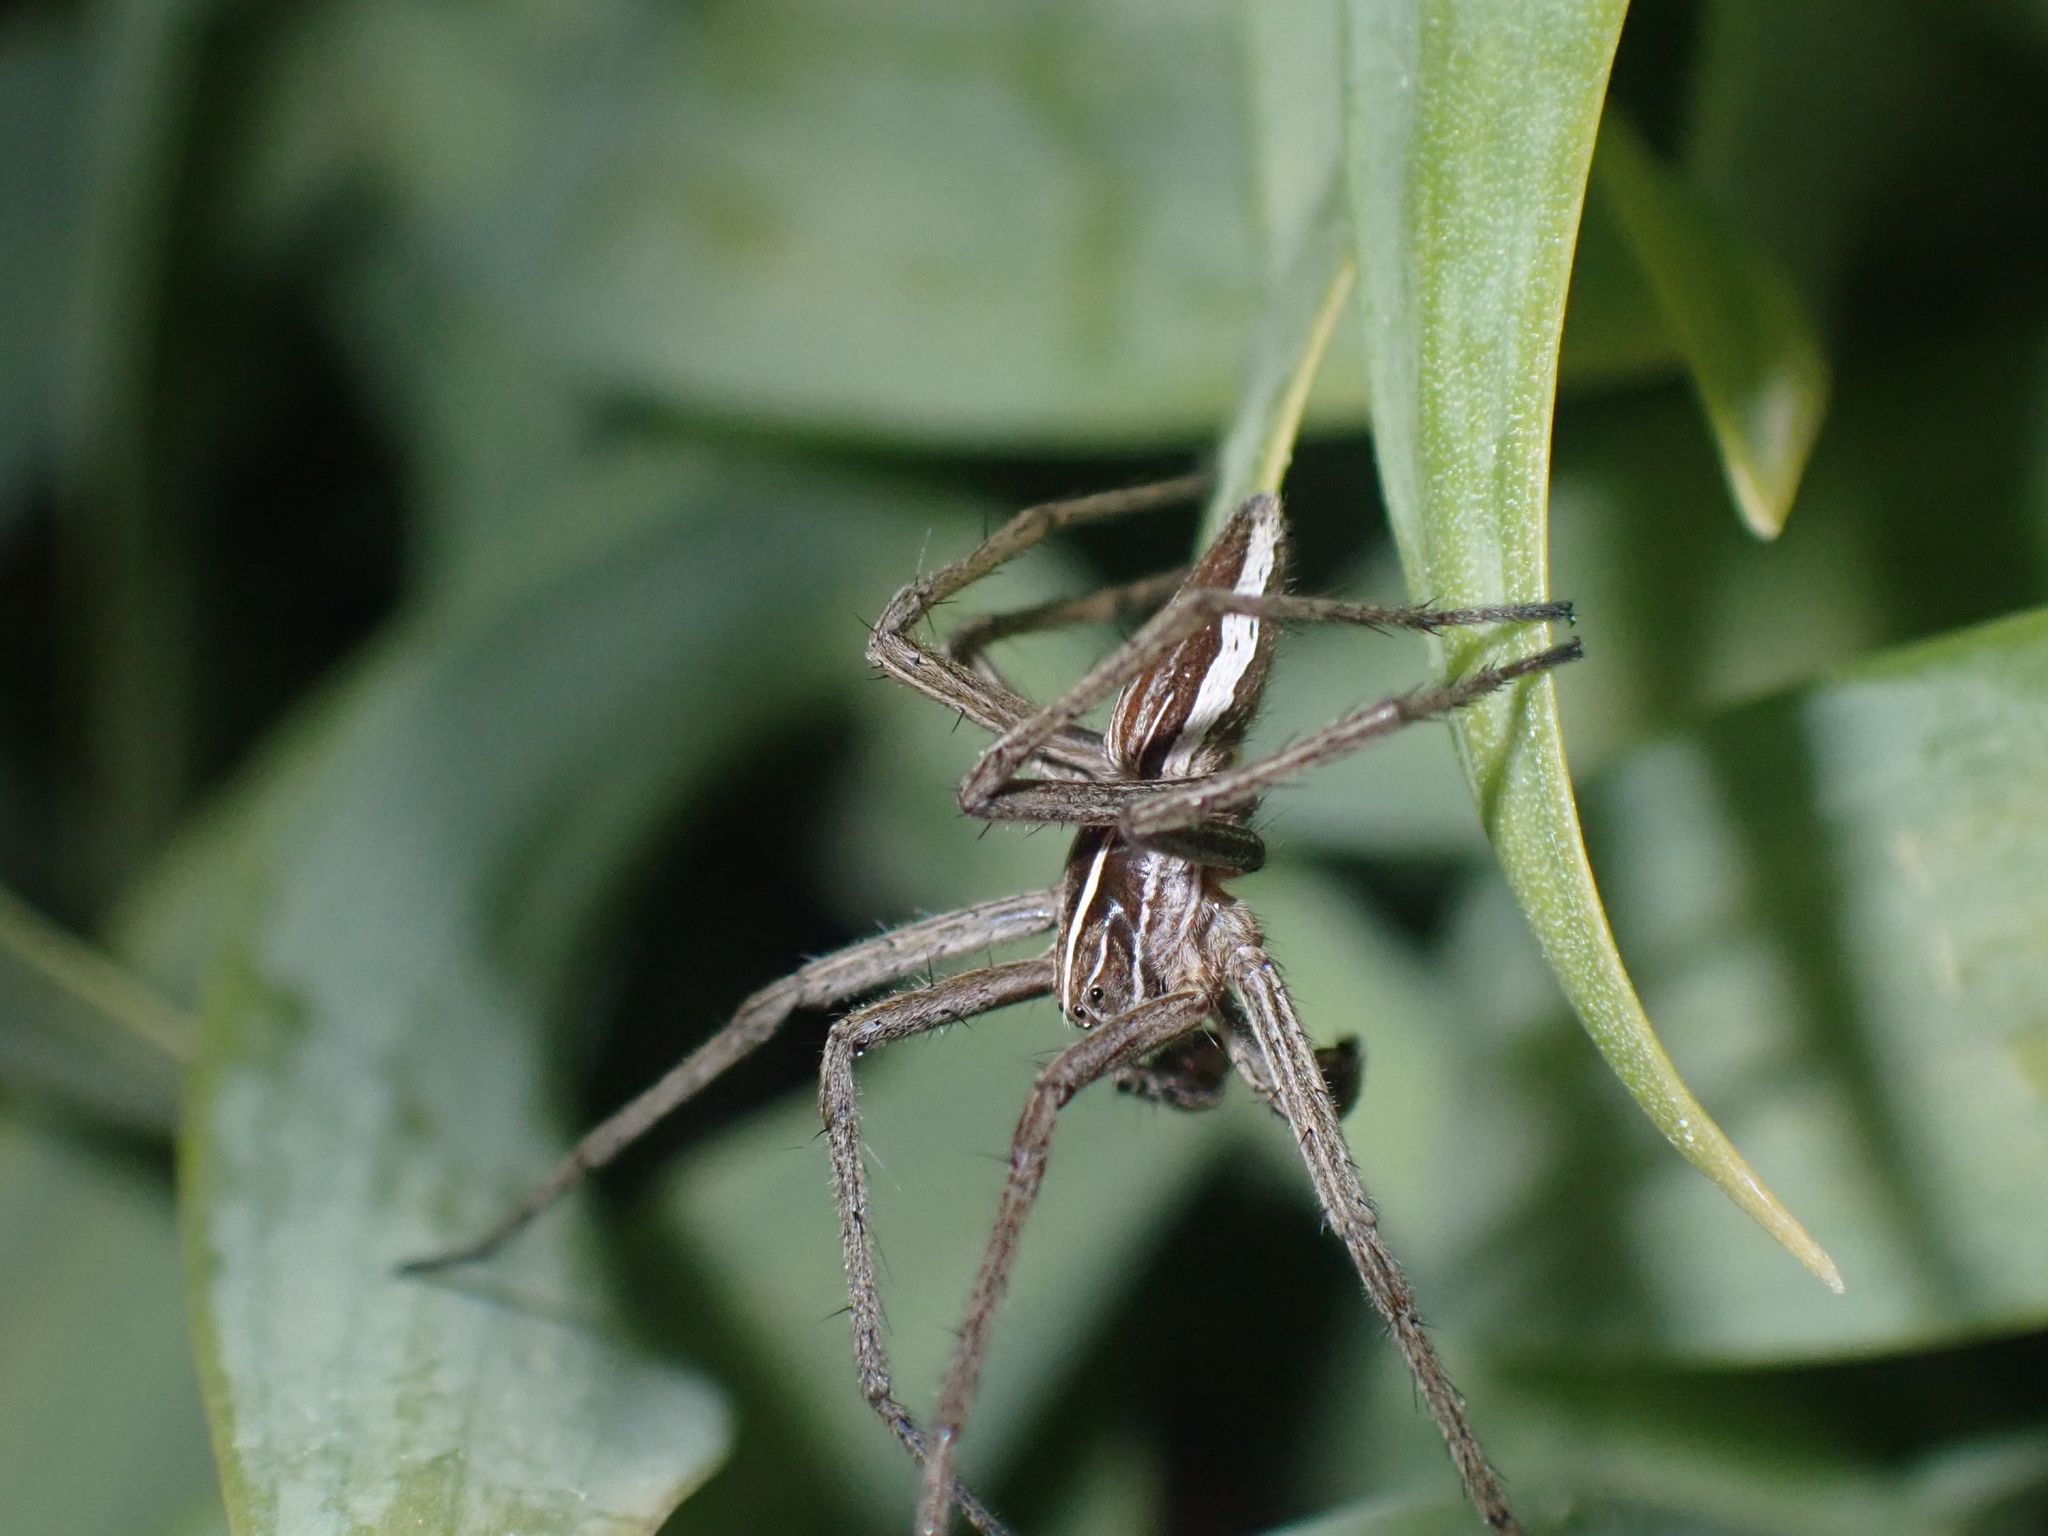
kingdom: Animalia
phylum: Arthropoda
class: Arachnida
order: Araneae
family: Pisauridae
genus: Pisaura
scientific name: Pisaura mirabilis
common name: Tent spider
